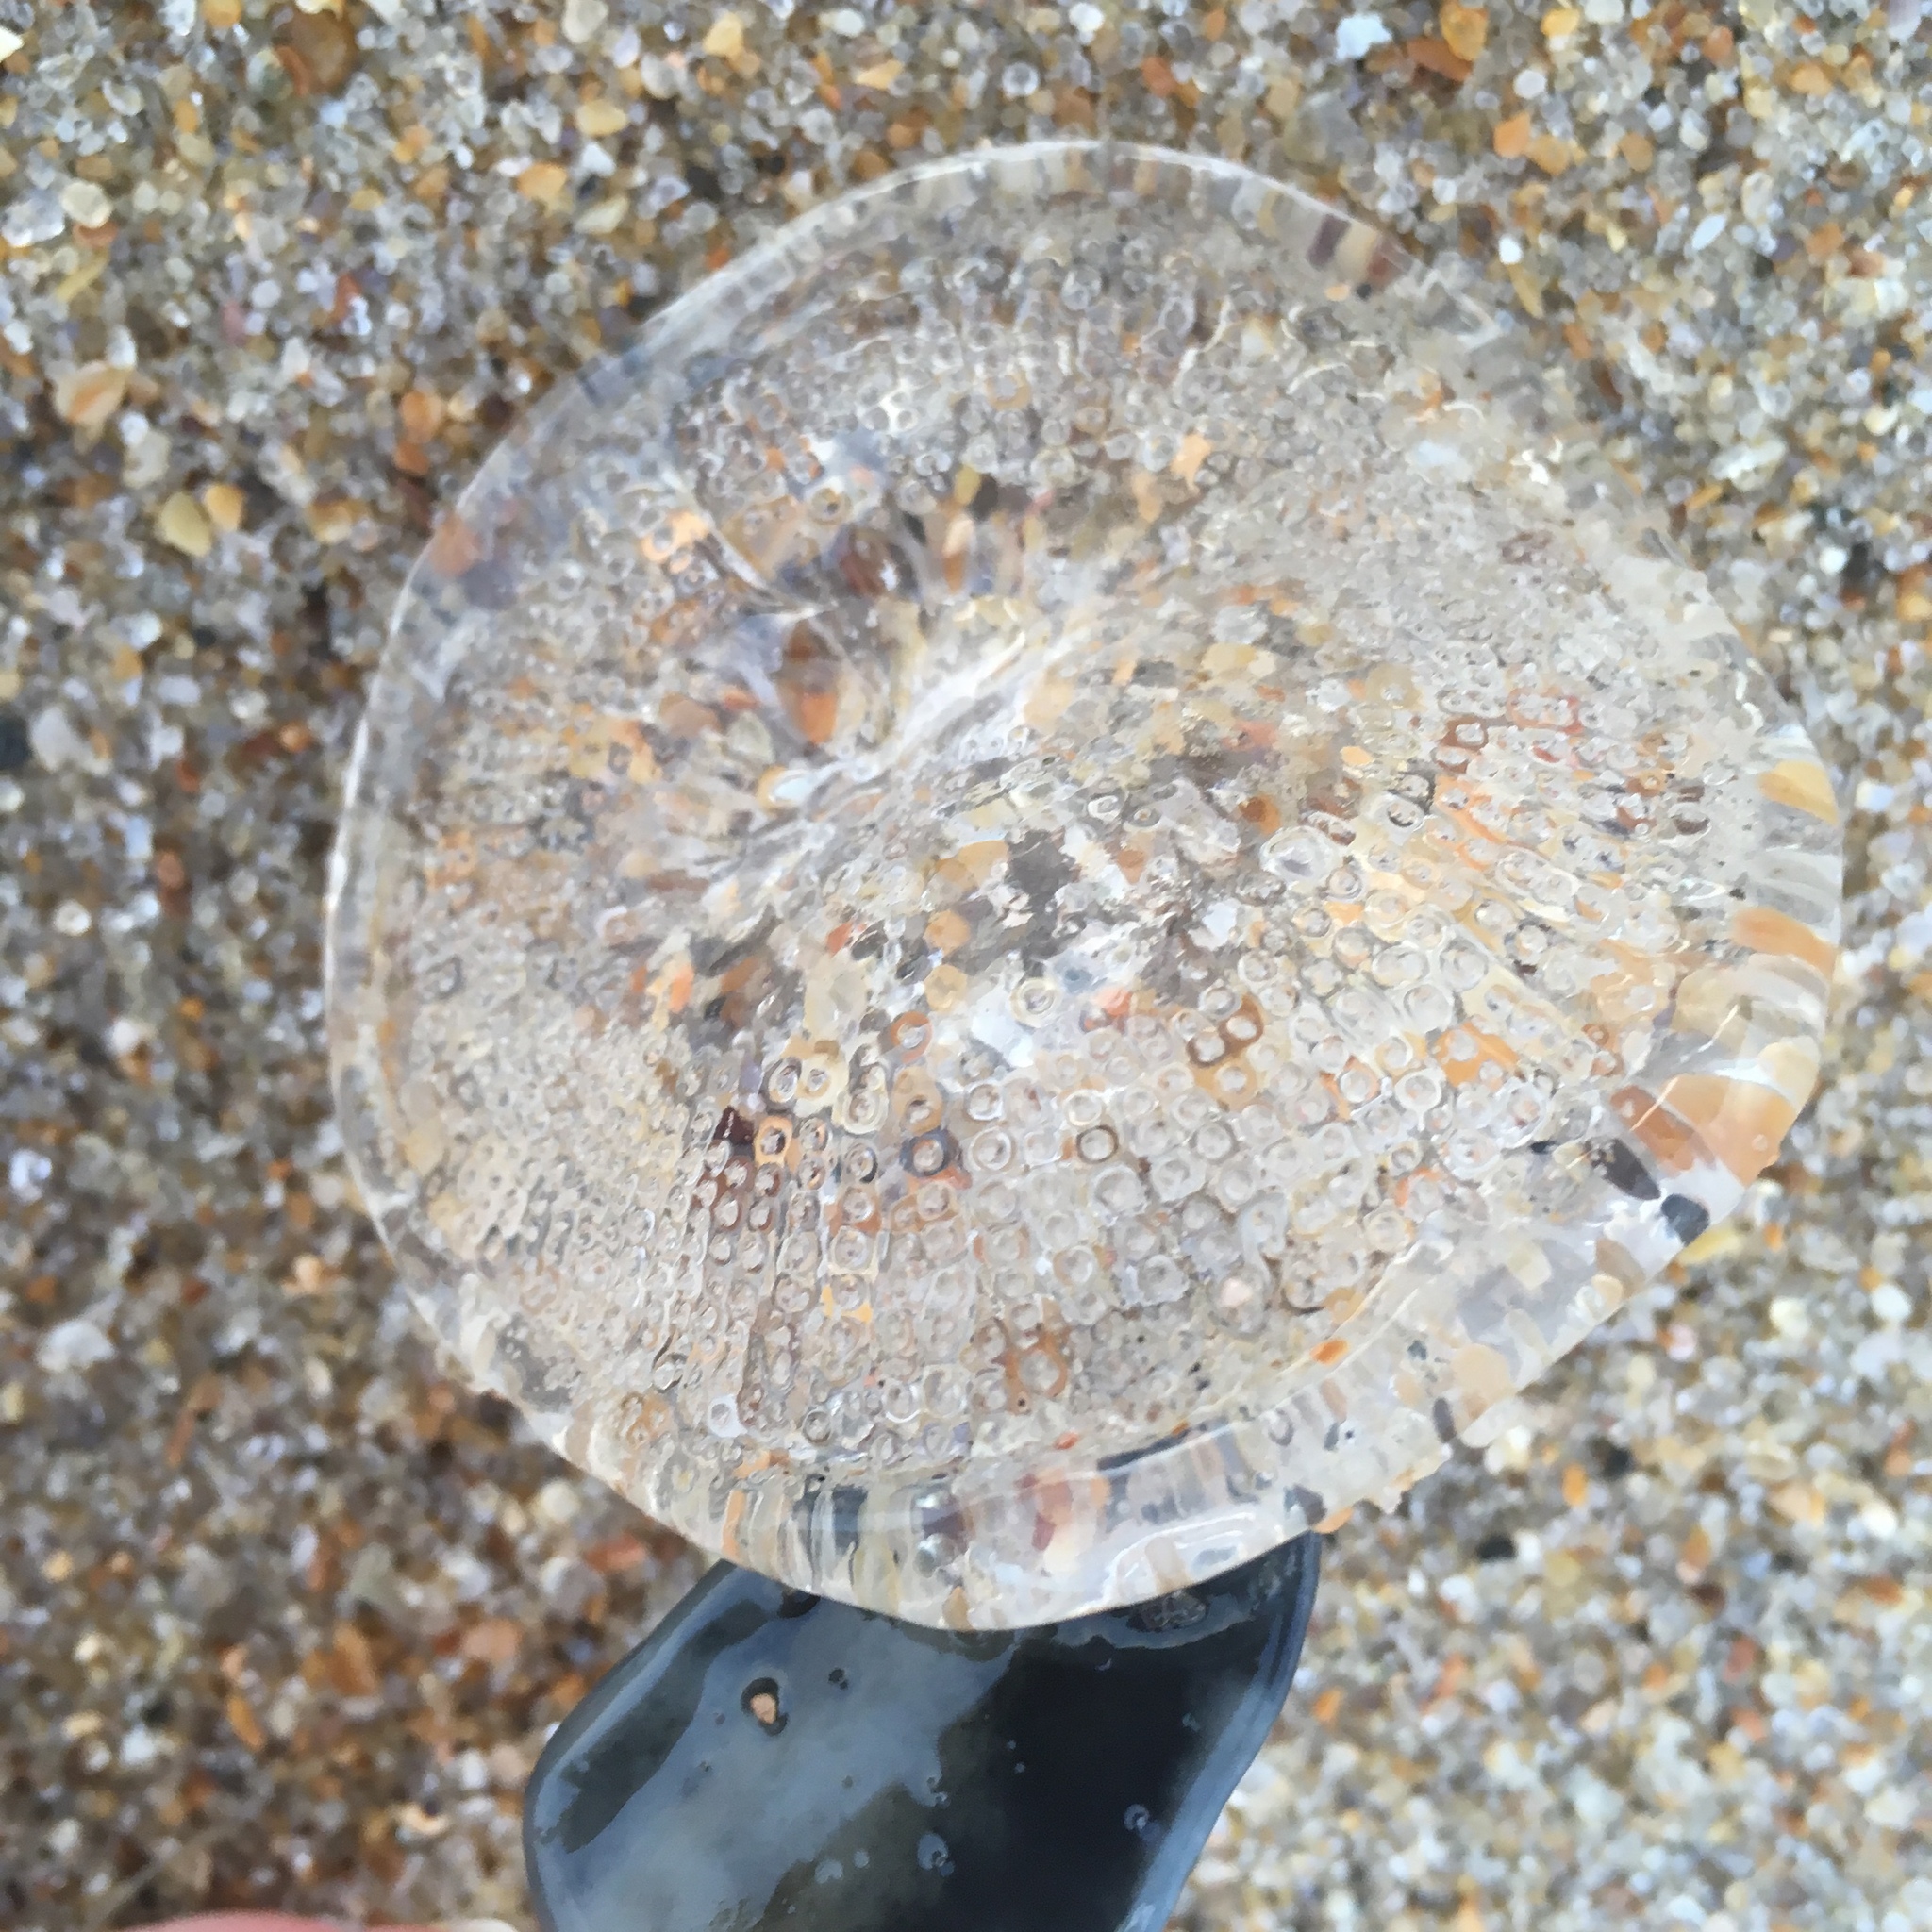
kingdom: Animalia
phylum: Cnidaria
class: Hydrozoa
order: Leptothecata
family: Aequoreidae
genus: Rhacostoma
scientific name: Rhacostoma atlanticum
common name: Lined water jelly
